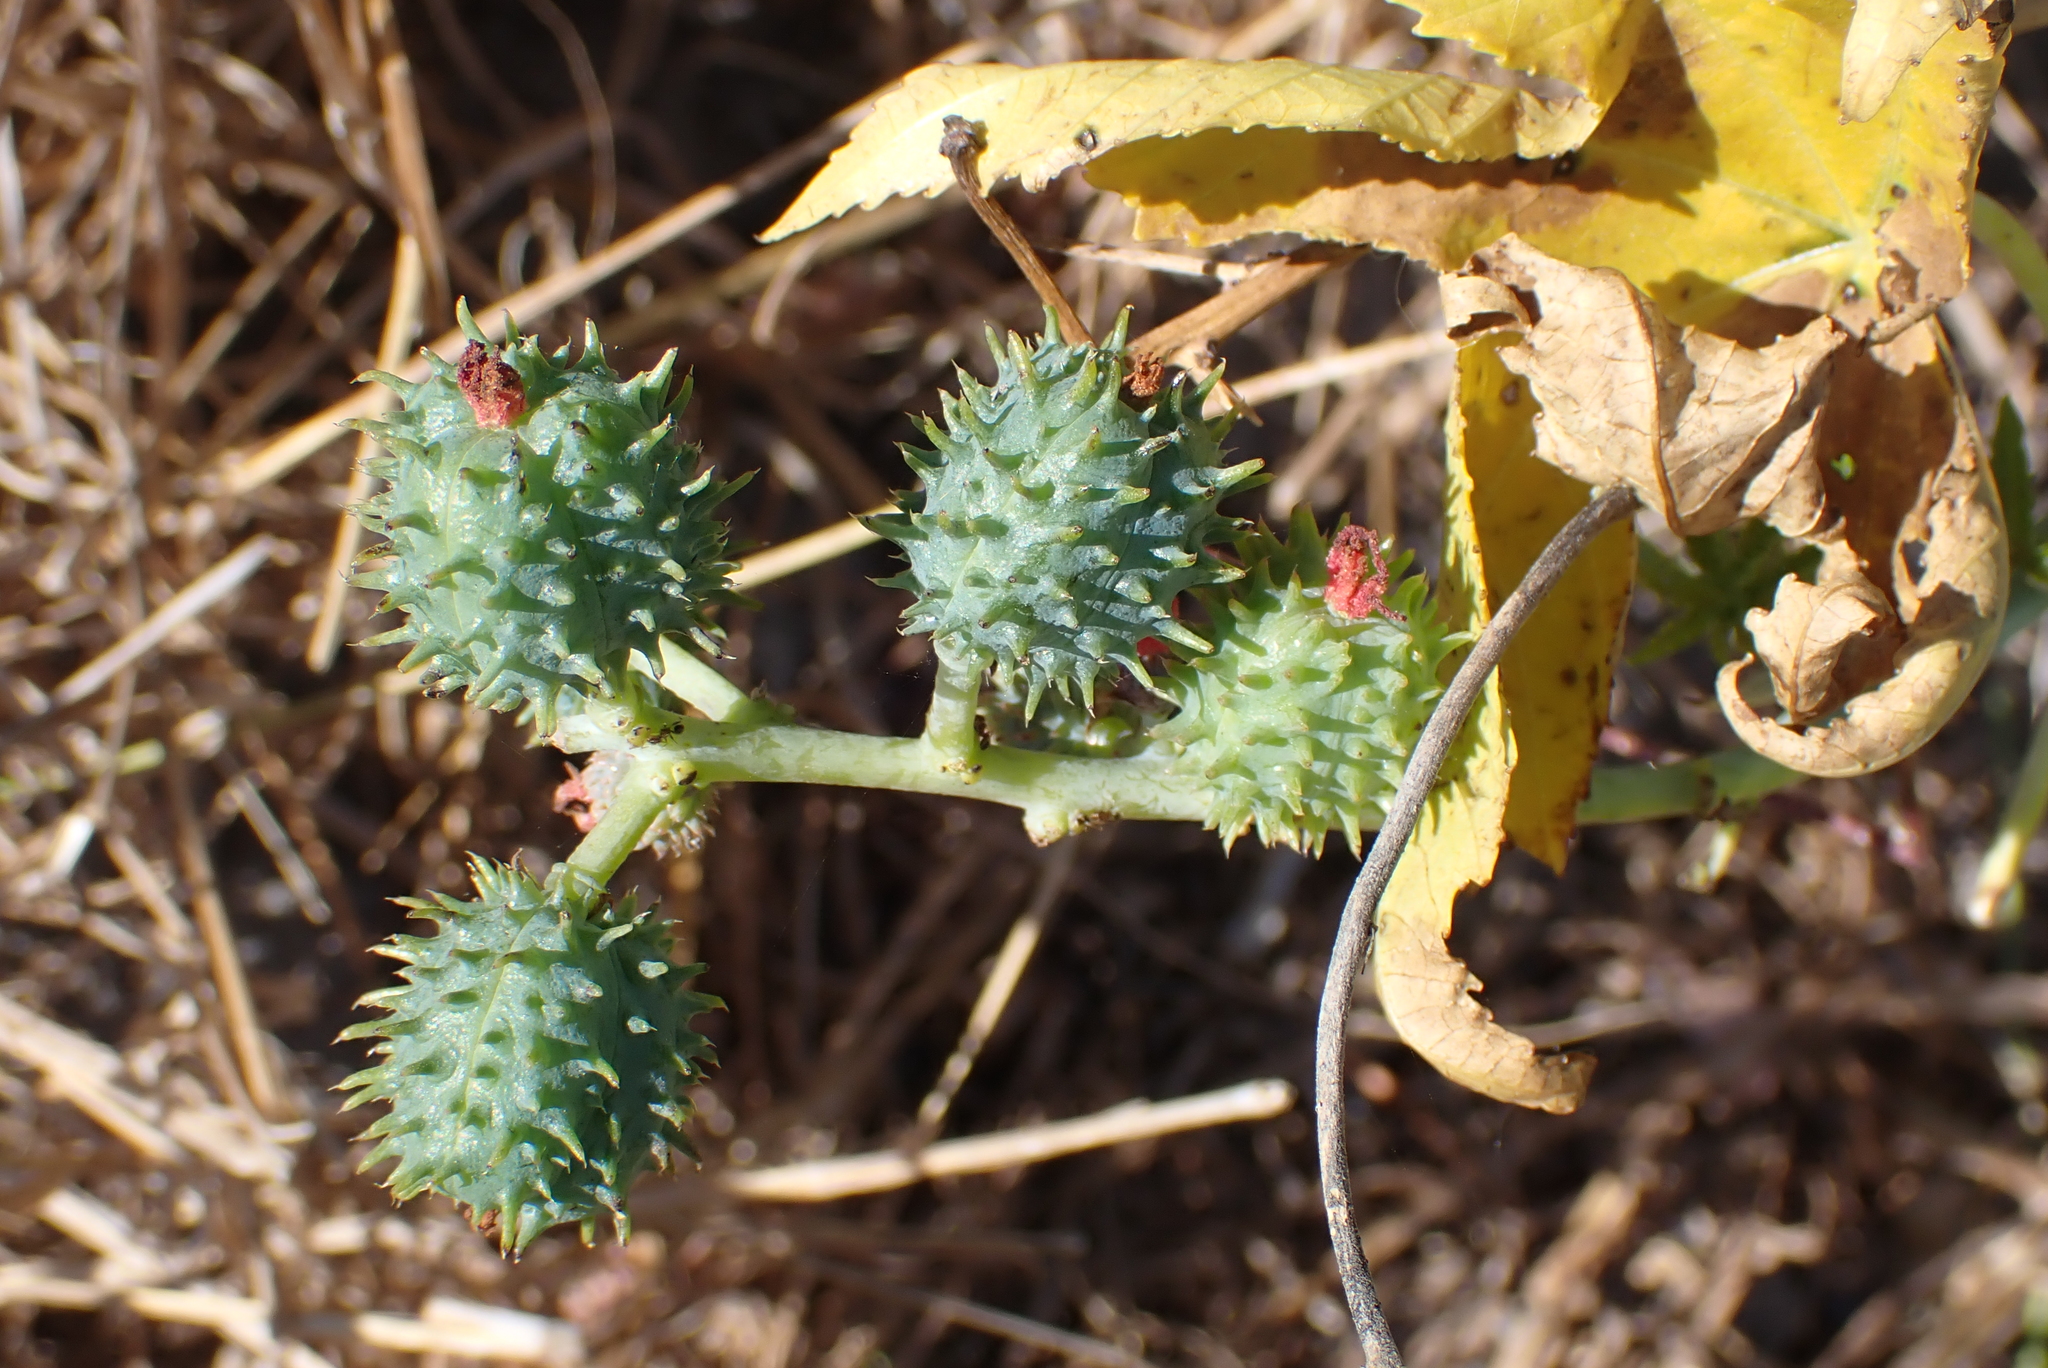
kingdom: Plantae
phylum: Tracheophyta
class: Magnoliopsida
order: Malpighiales
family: Euphorbiaceae
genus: Ricinus
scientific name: Ricinus communis
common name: Castor-oil-plant
